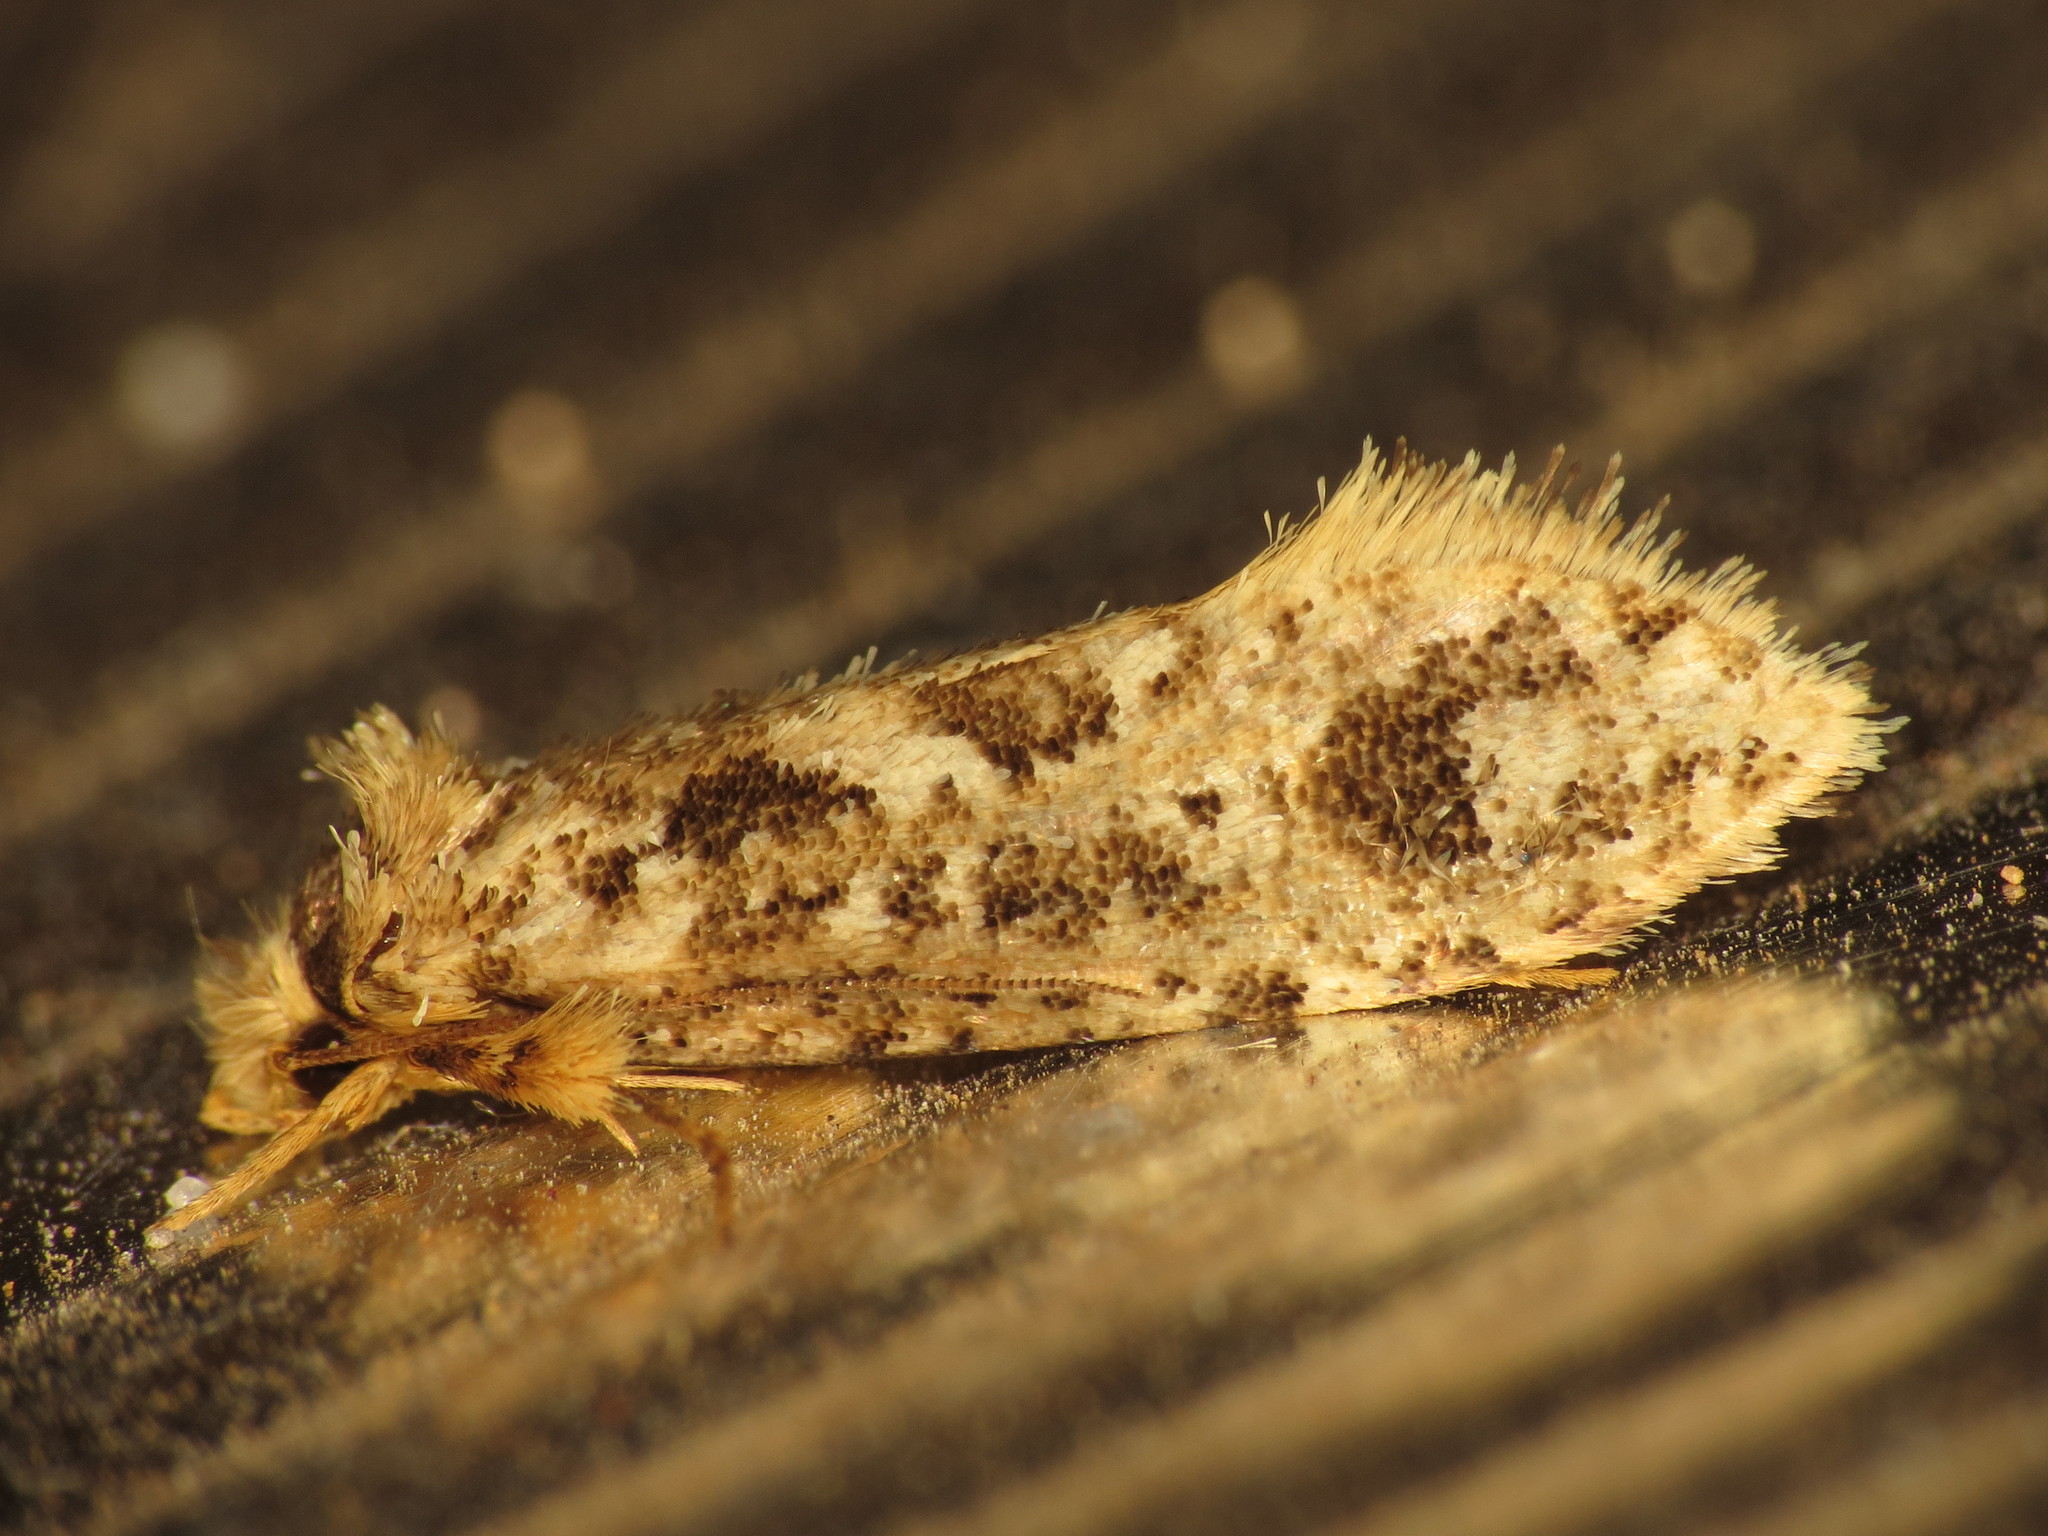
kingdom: Animalia
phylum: Arthropoda
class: Insecta
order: Lepidoptera
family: Tineidae
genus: Moerarchis
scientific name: Moerarchis inconcisella
